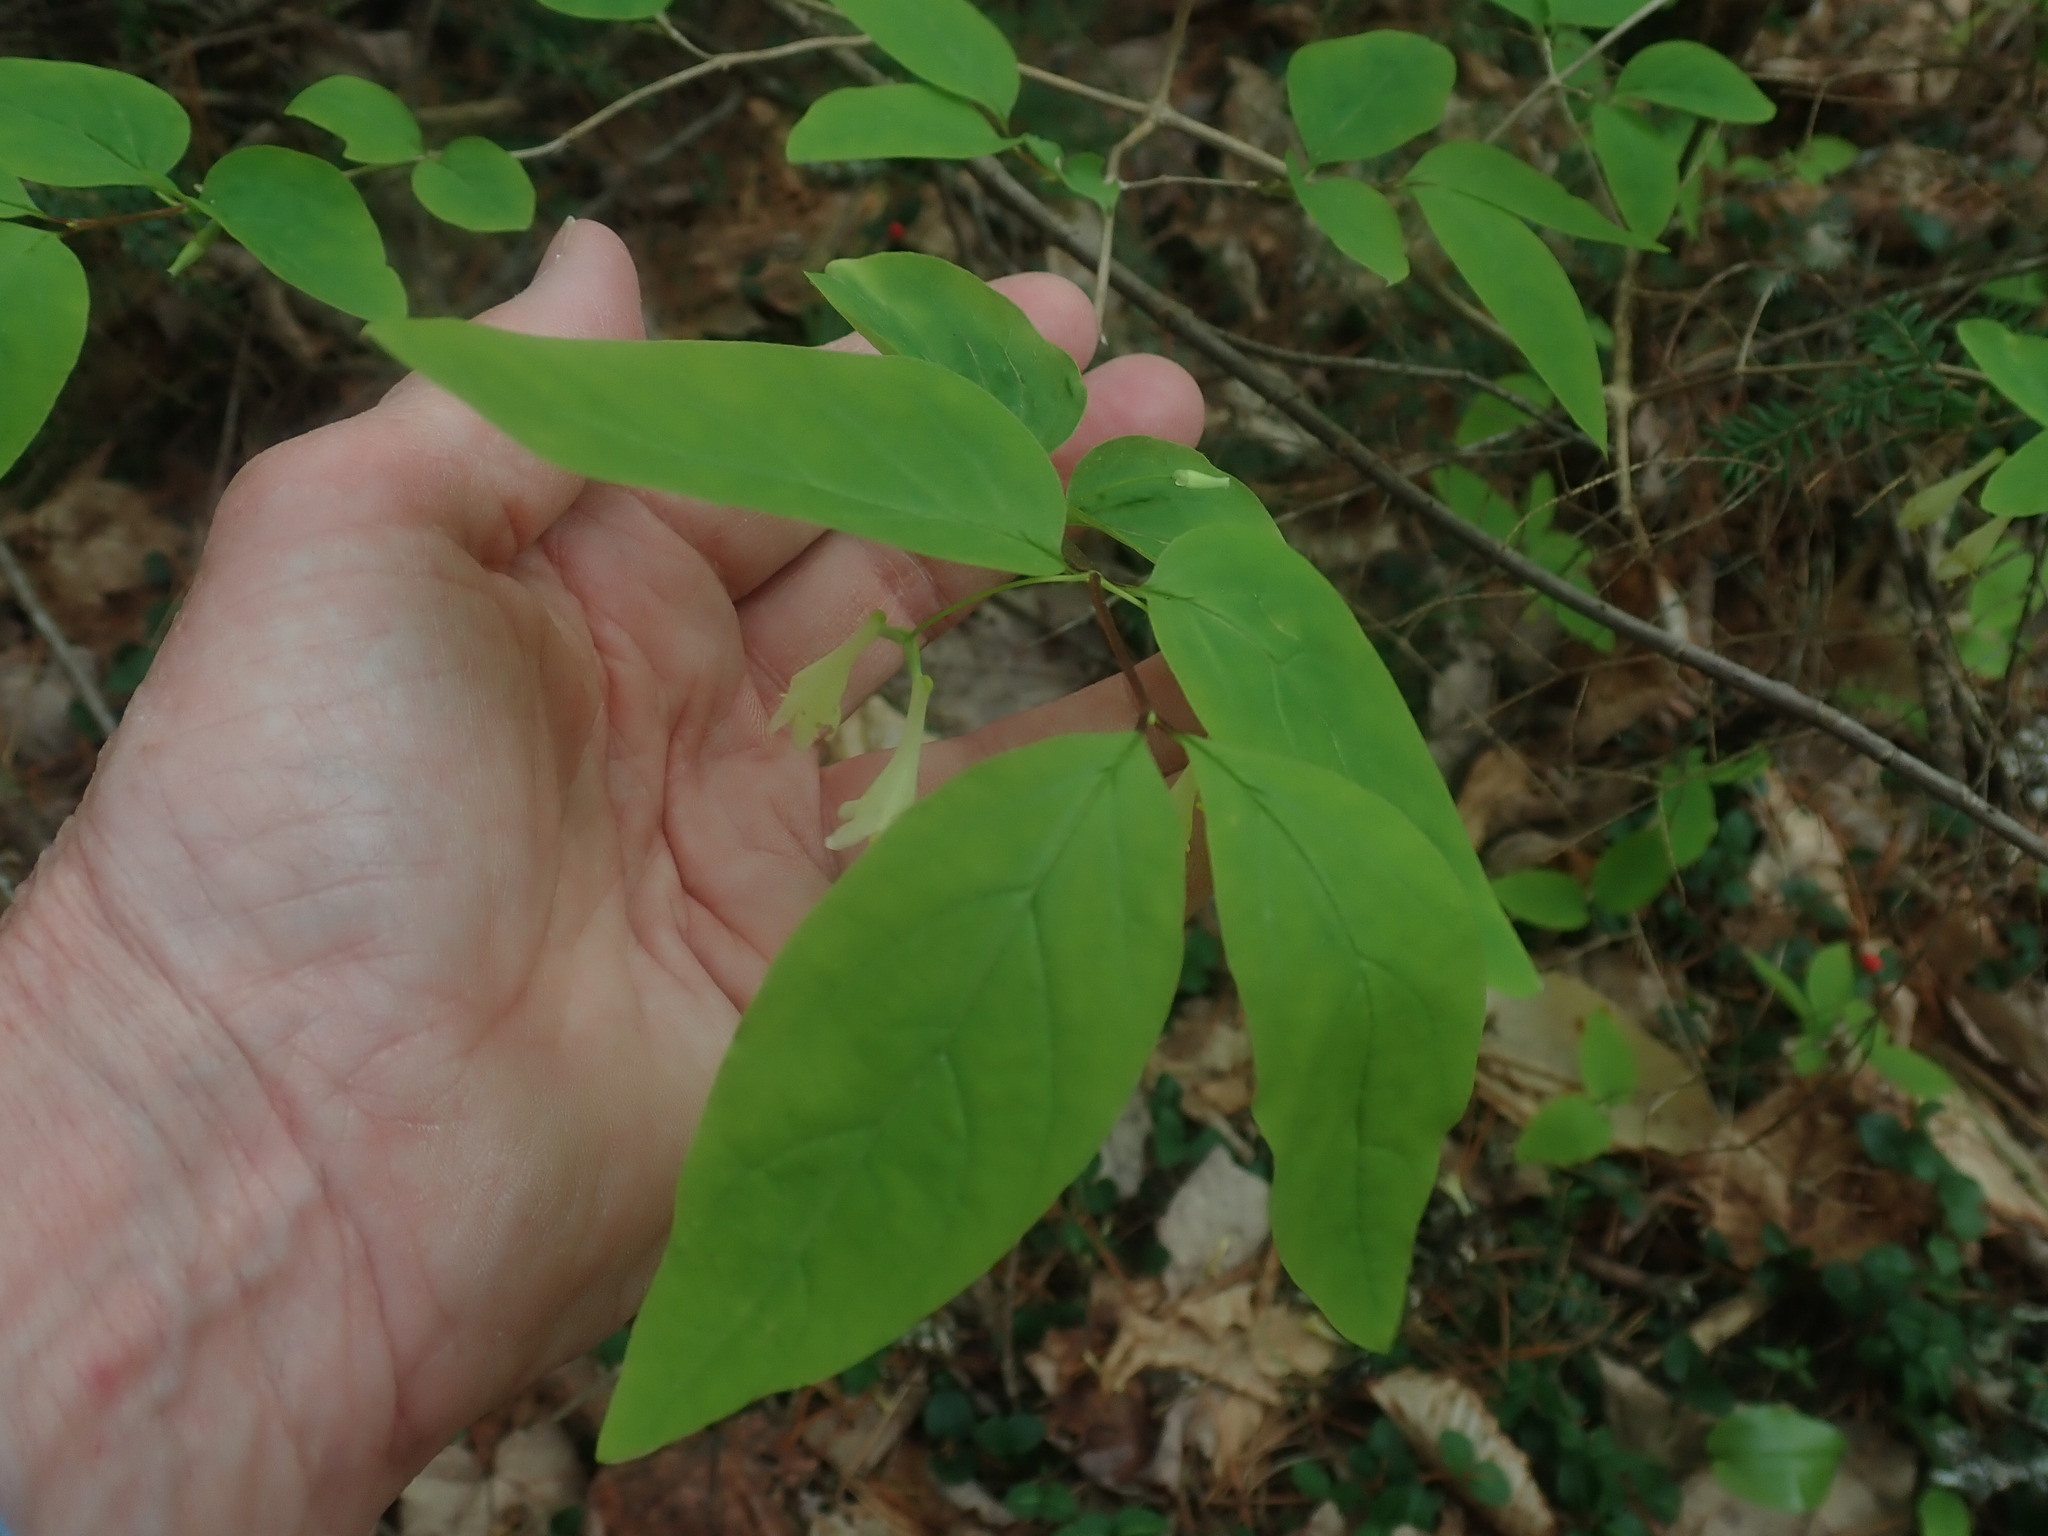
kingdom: Plantae
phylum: Tracheophyta
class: Magnoliopsida
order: Dipsacales
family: Caprifoliaceae
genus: Lonicera
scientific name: Lonicera canadensis
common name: American fly-honeysuckle
